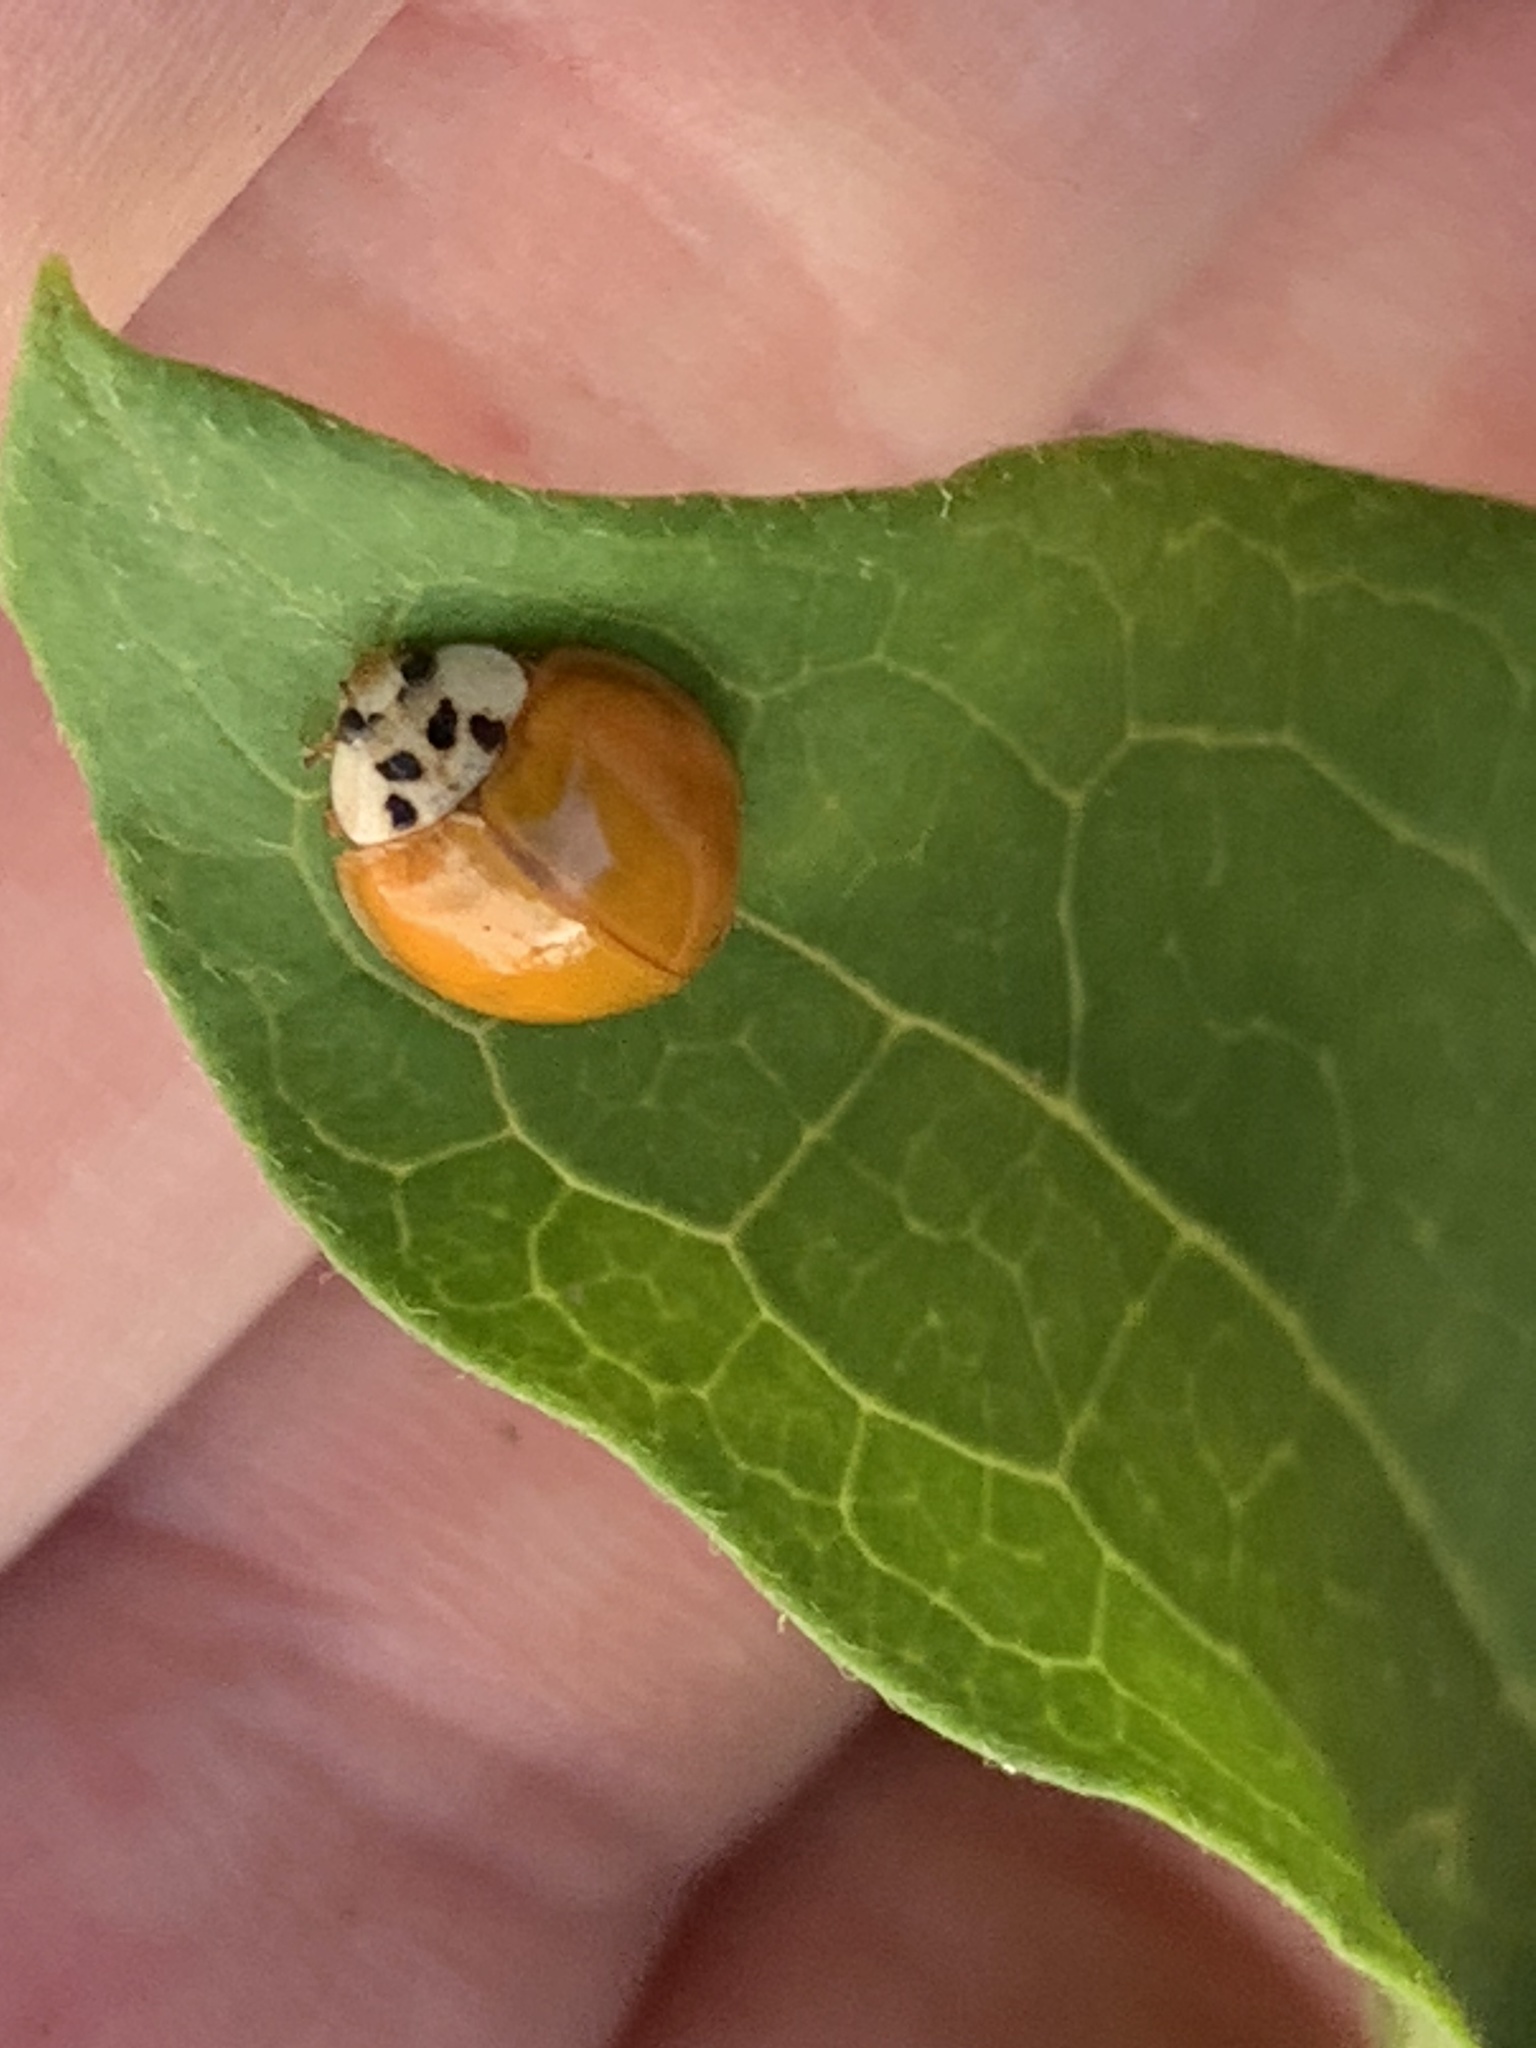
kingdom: Animalia
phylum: Arthropoda
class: Insecta
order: Coleoptera
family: Coccinellidae
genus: Harmonia
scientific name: Harmonia axyridis
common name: Harlequin ladybird
